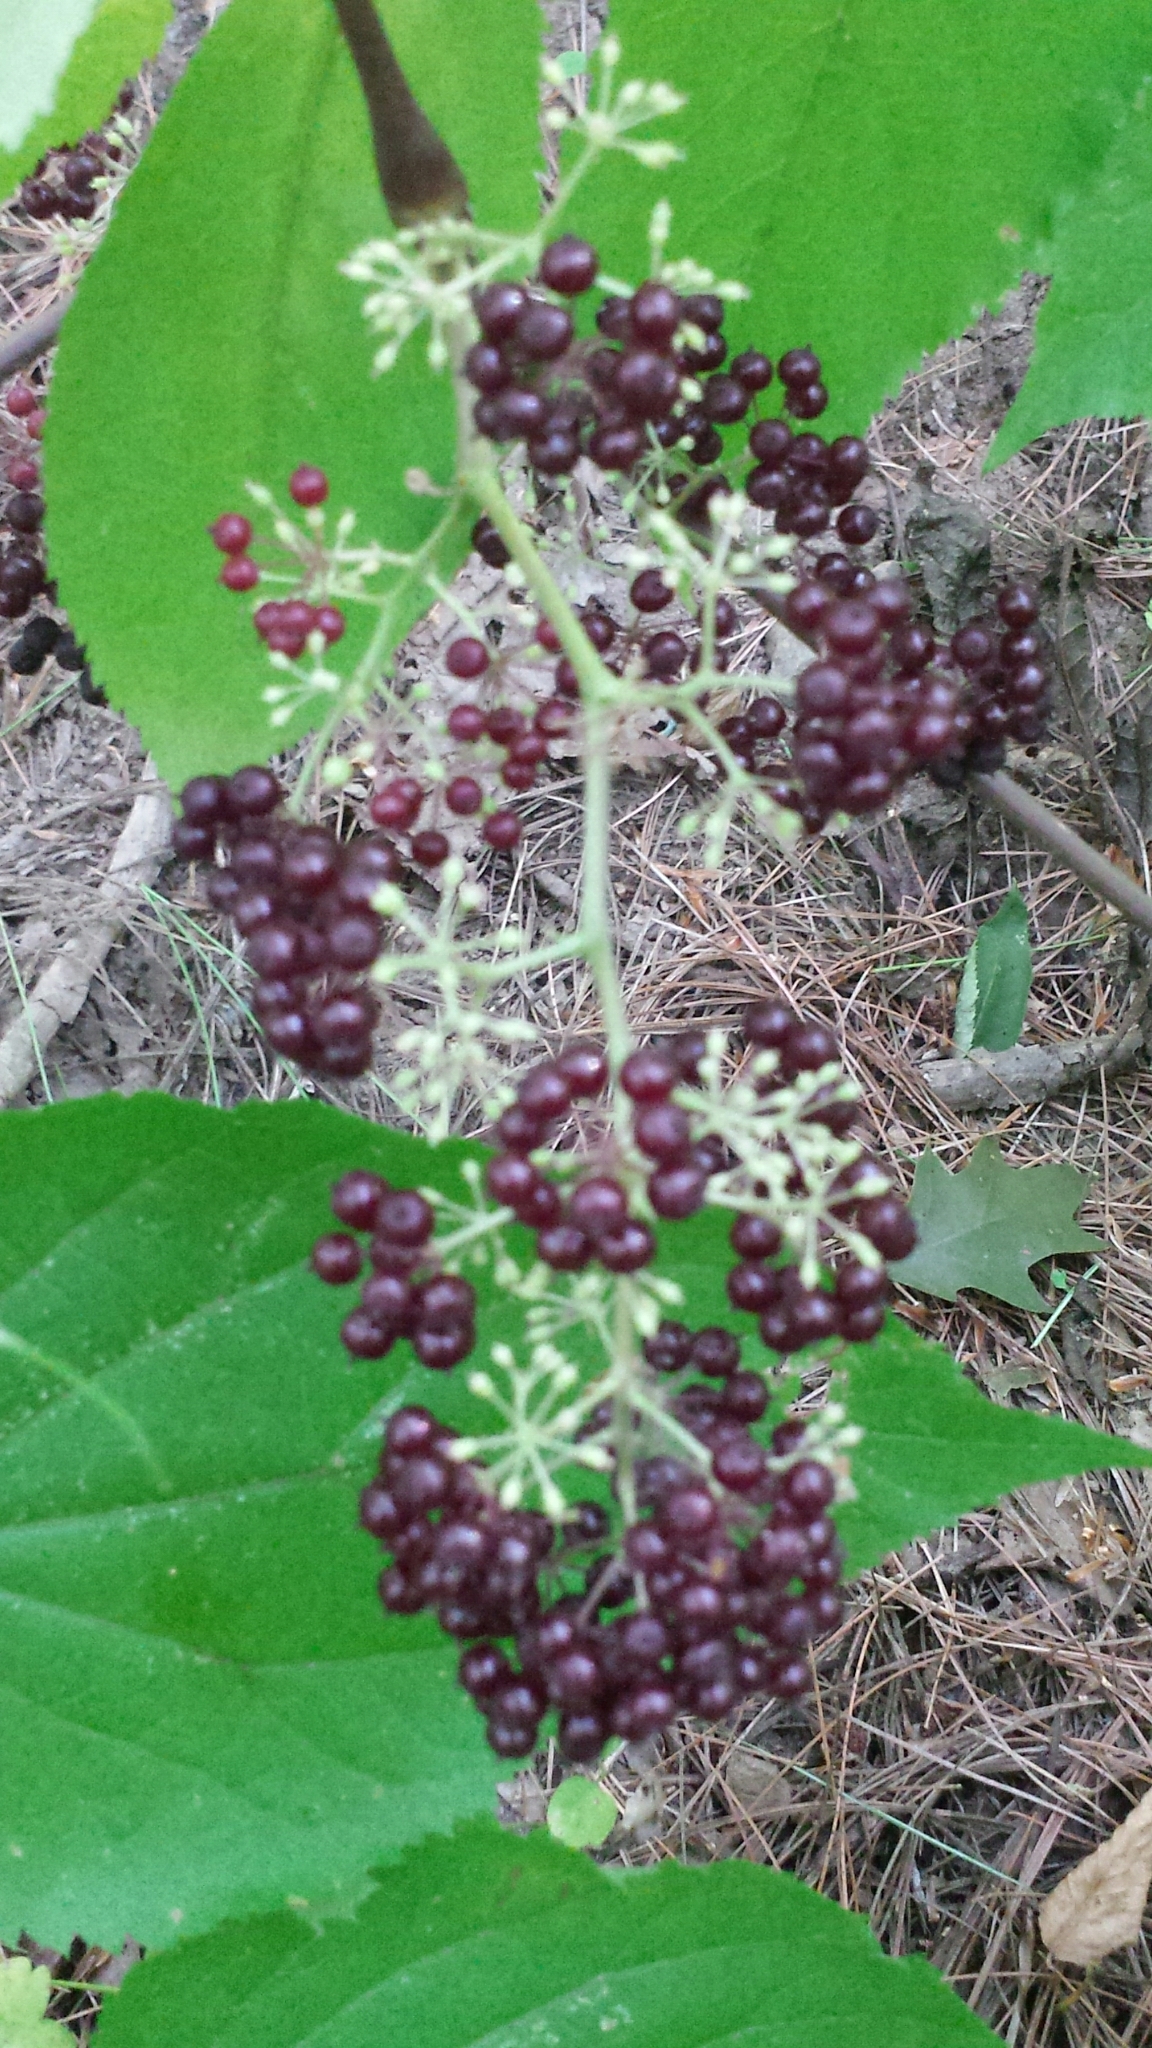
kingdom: Plantae
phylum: Tracheophyta
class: Magnoliopsida
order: Apiales
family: Araliaceae
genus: Aralia
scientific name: Aralia racemosa
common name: American-spikenard
